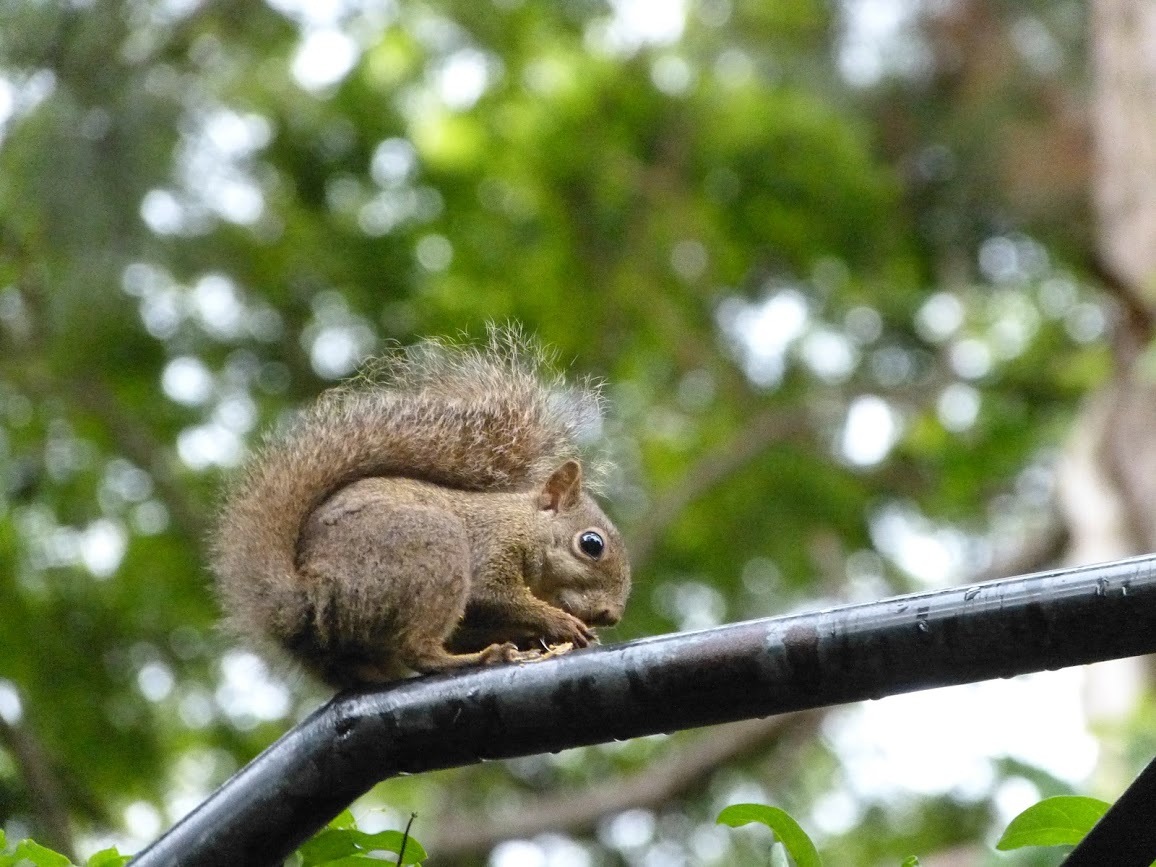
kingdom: Animalia
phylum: Chordata
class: Mammalia
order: Rodentia
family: Sciuridae
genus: Sciurus
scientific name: Sciurus aestuans
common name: Guianan squirrel
